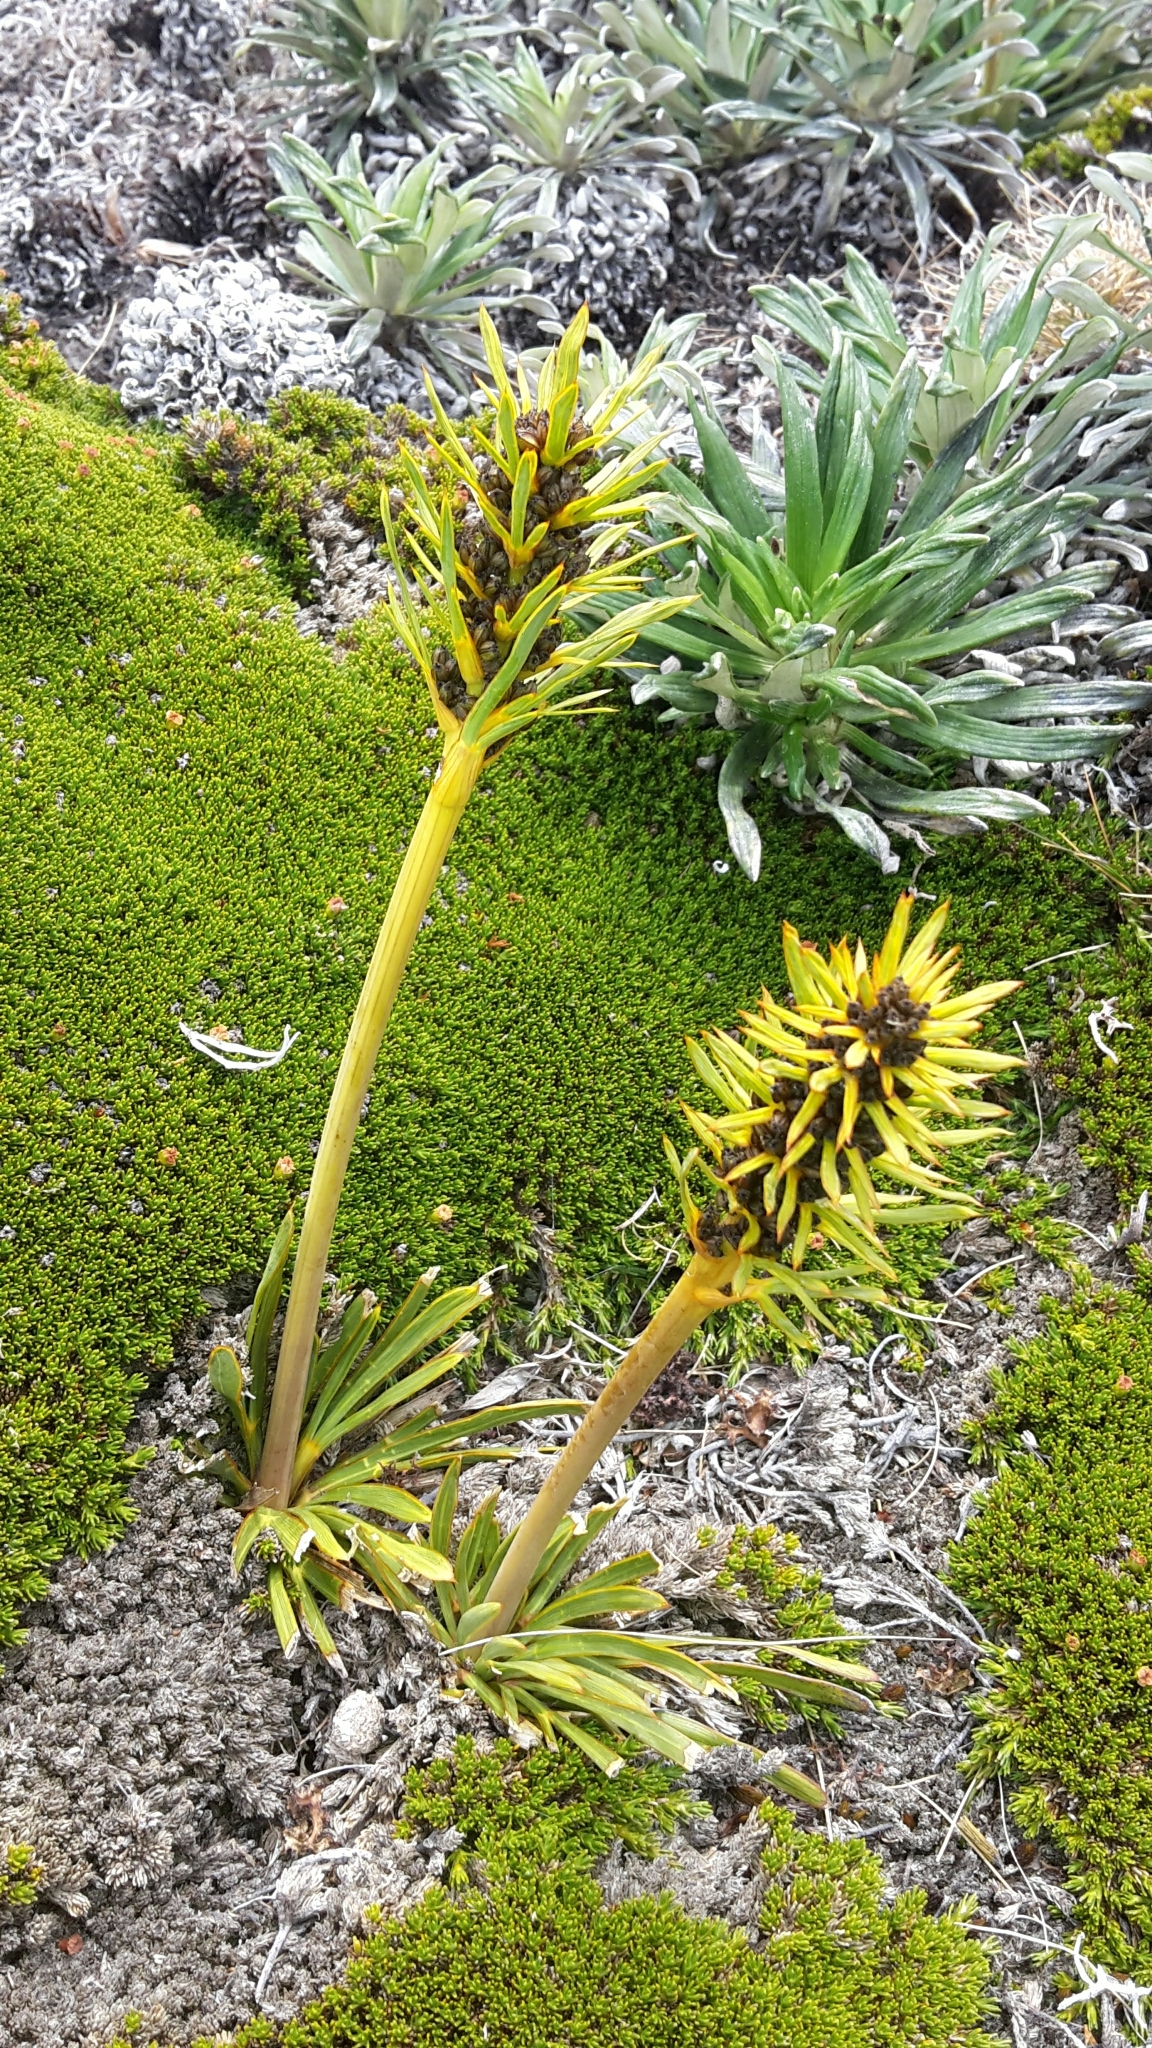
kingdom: Plantae
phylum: Tracheophyta
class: Magnoliopsida
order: Apiales
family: Apiaceae
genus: Aciphylla
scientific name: Aciphylla verticillata
